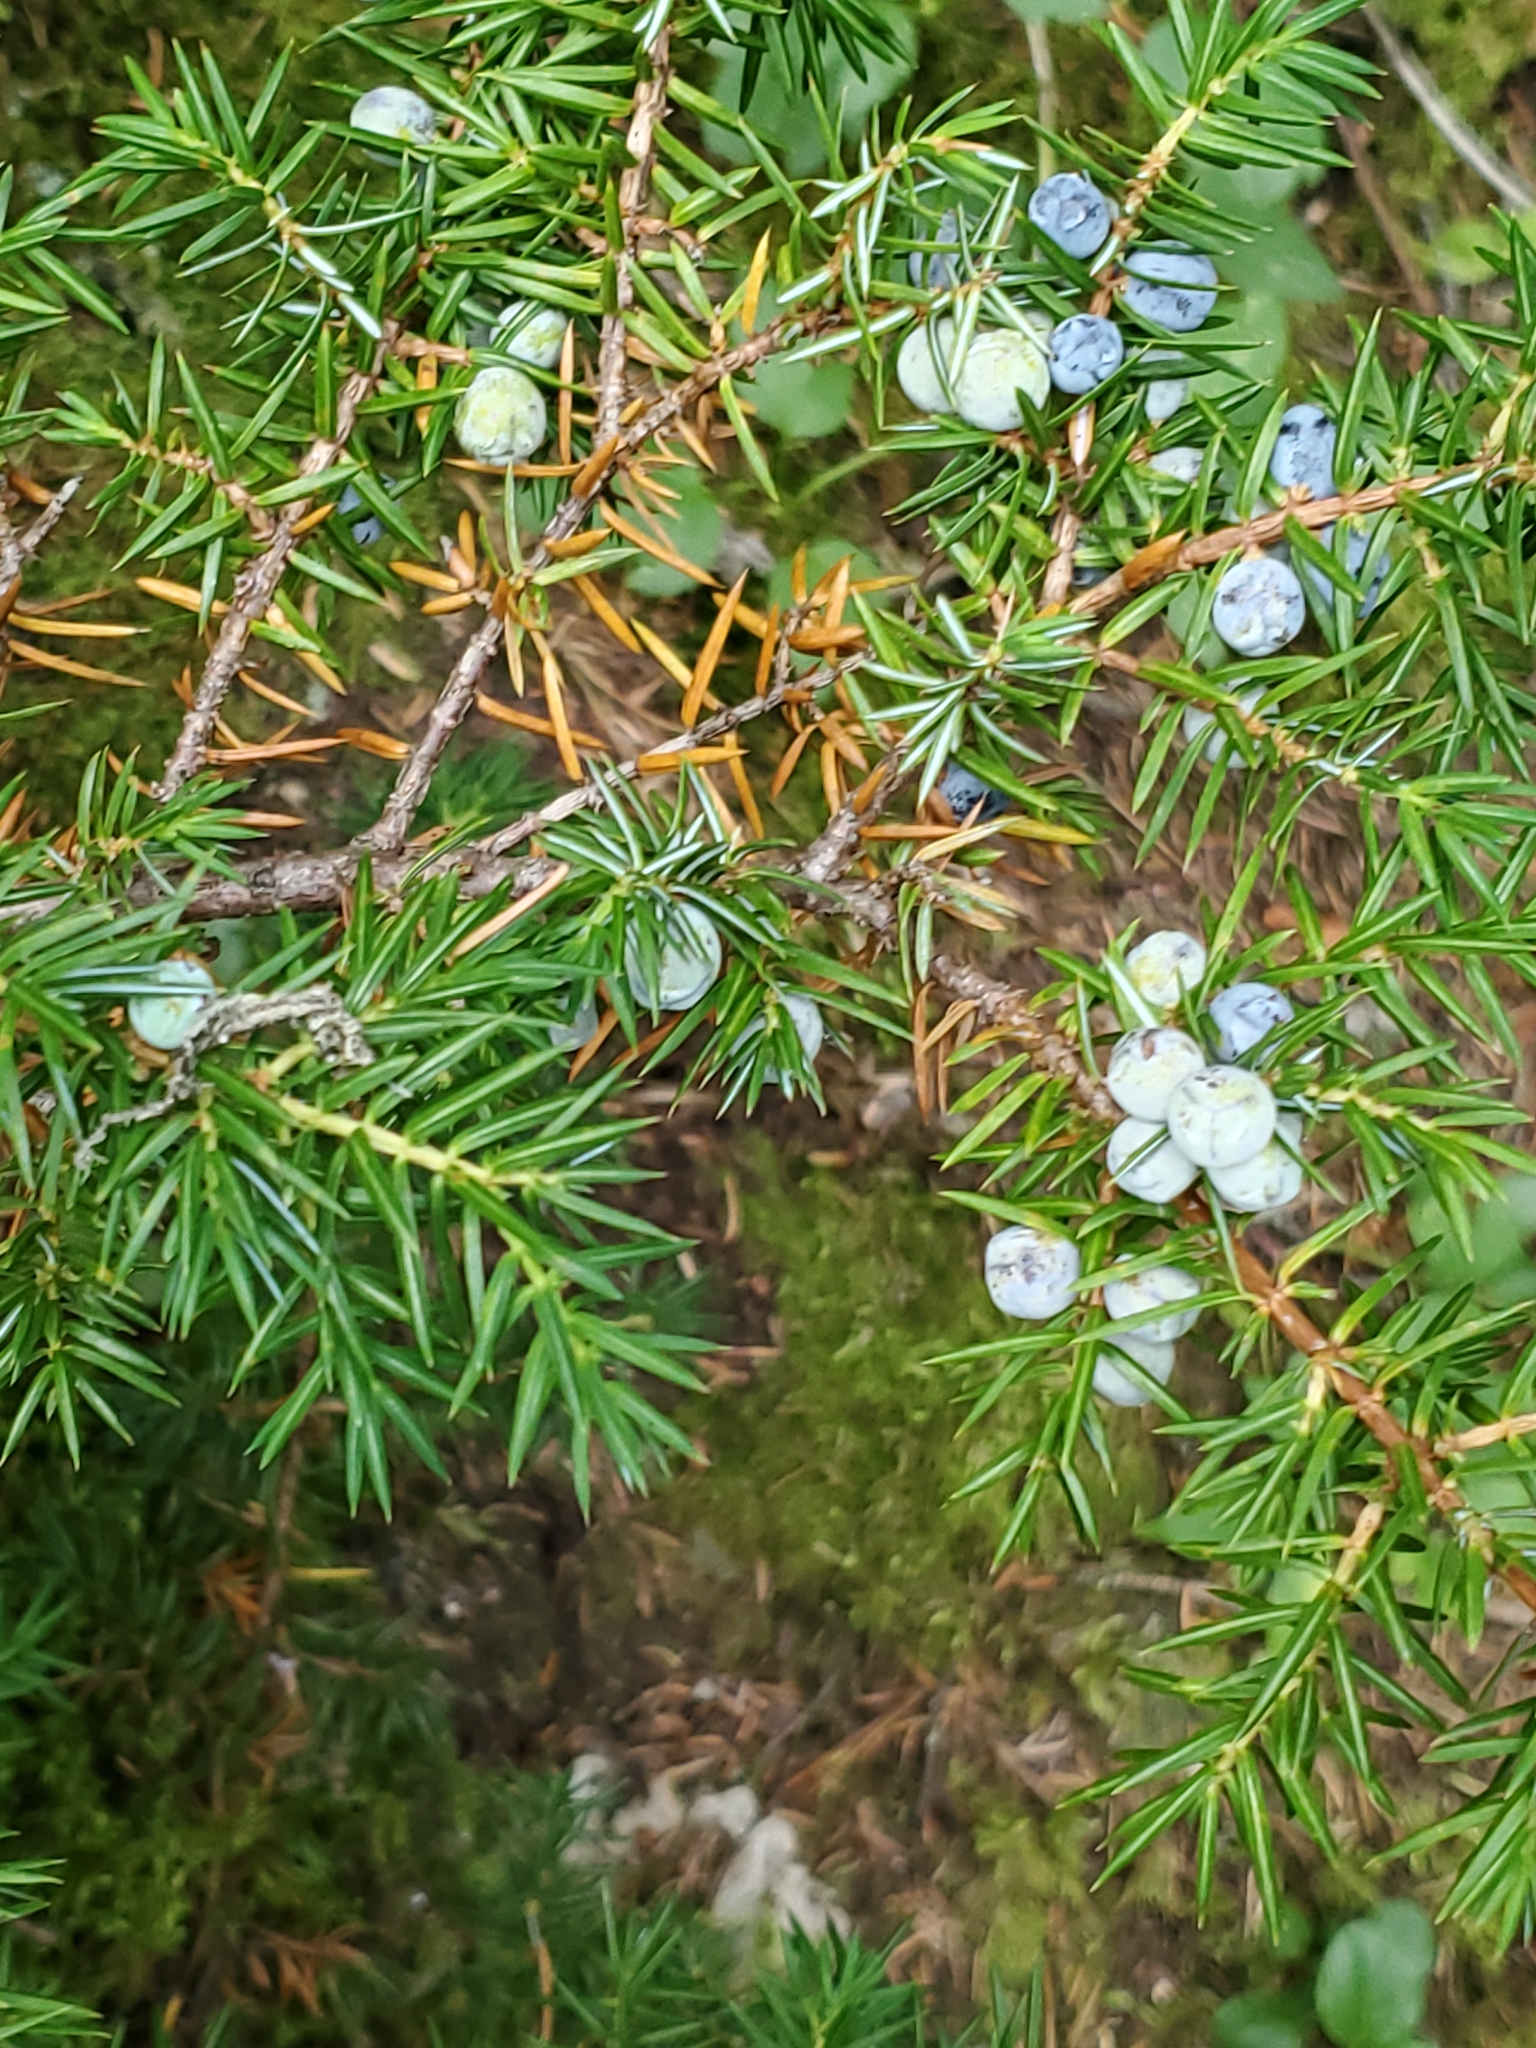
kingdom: Plantae
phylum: Tracheophyta
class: Pinopsida
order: Pinales
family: Cupressaceae
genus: Juniperus
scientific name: Juniperus communis
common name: Common juniper
